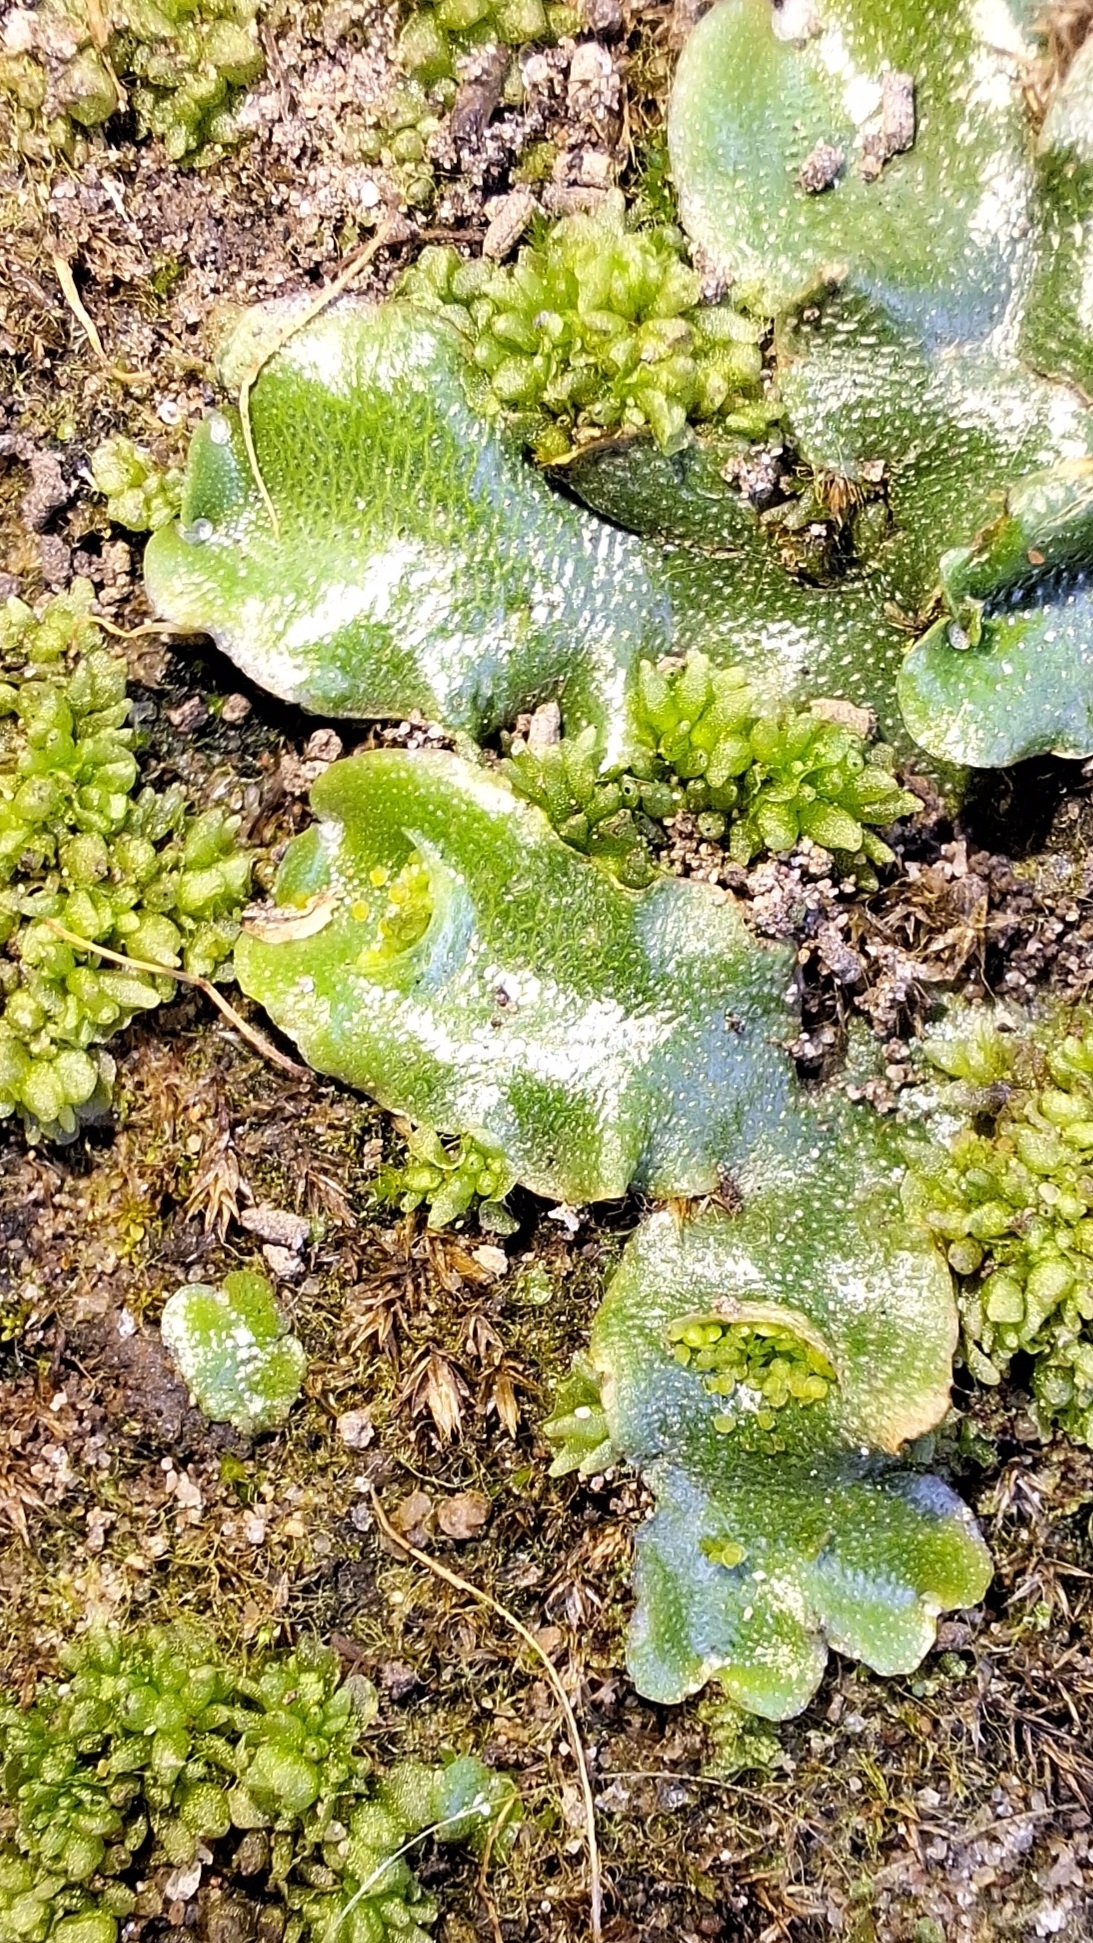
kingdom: Plantae
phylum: Marchantiophyta
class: Marchantiopsida
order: Lunulariales
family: Lunulariaceae
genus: Lunularia
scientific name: Lunularia cruciata
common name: Crescent-cup liverwort
